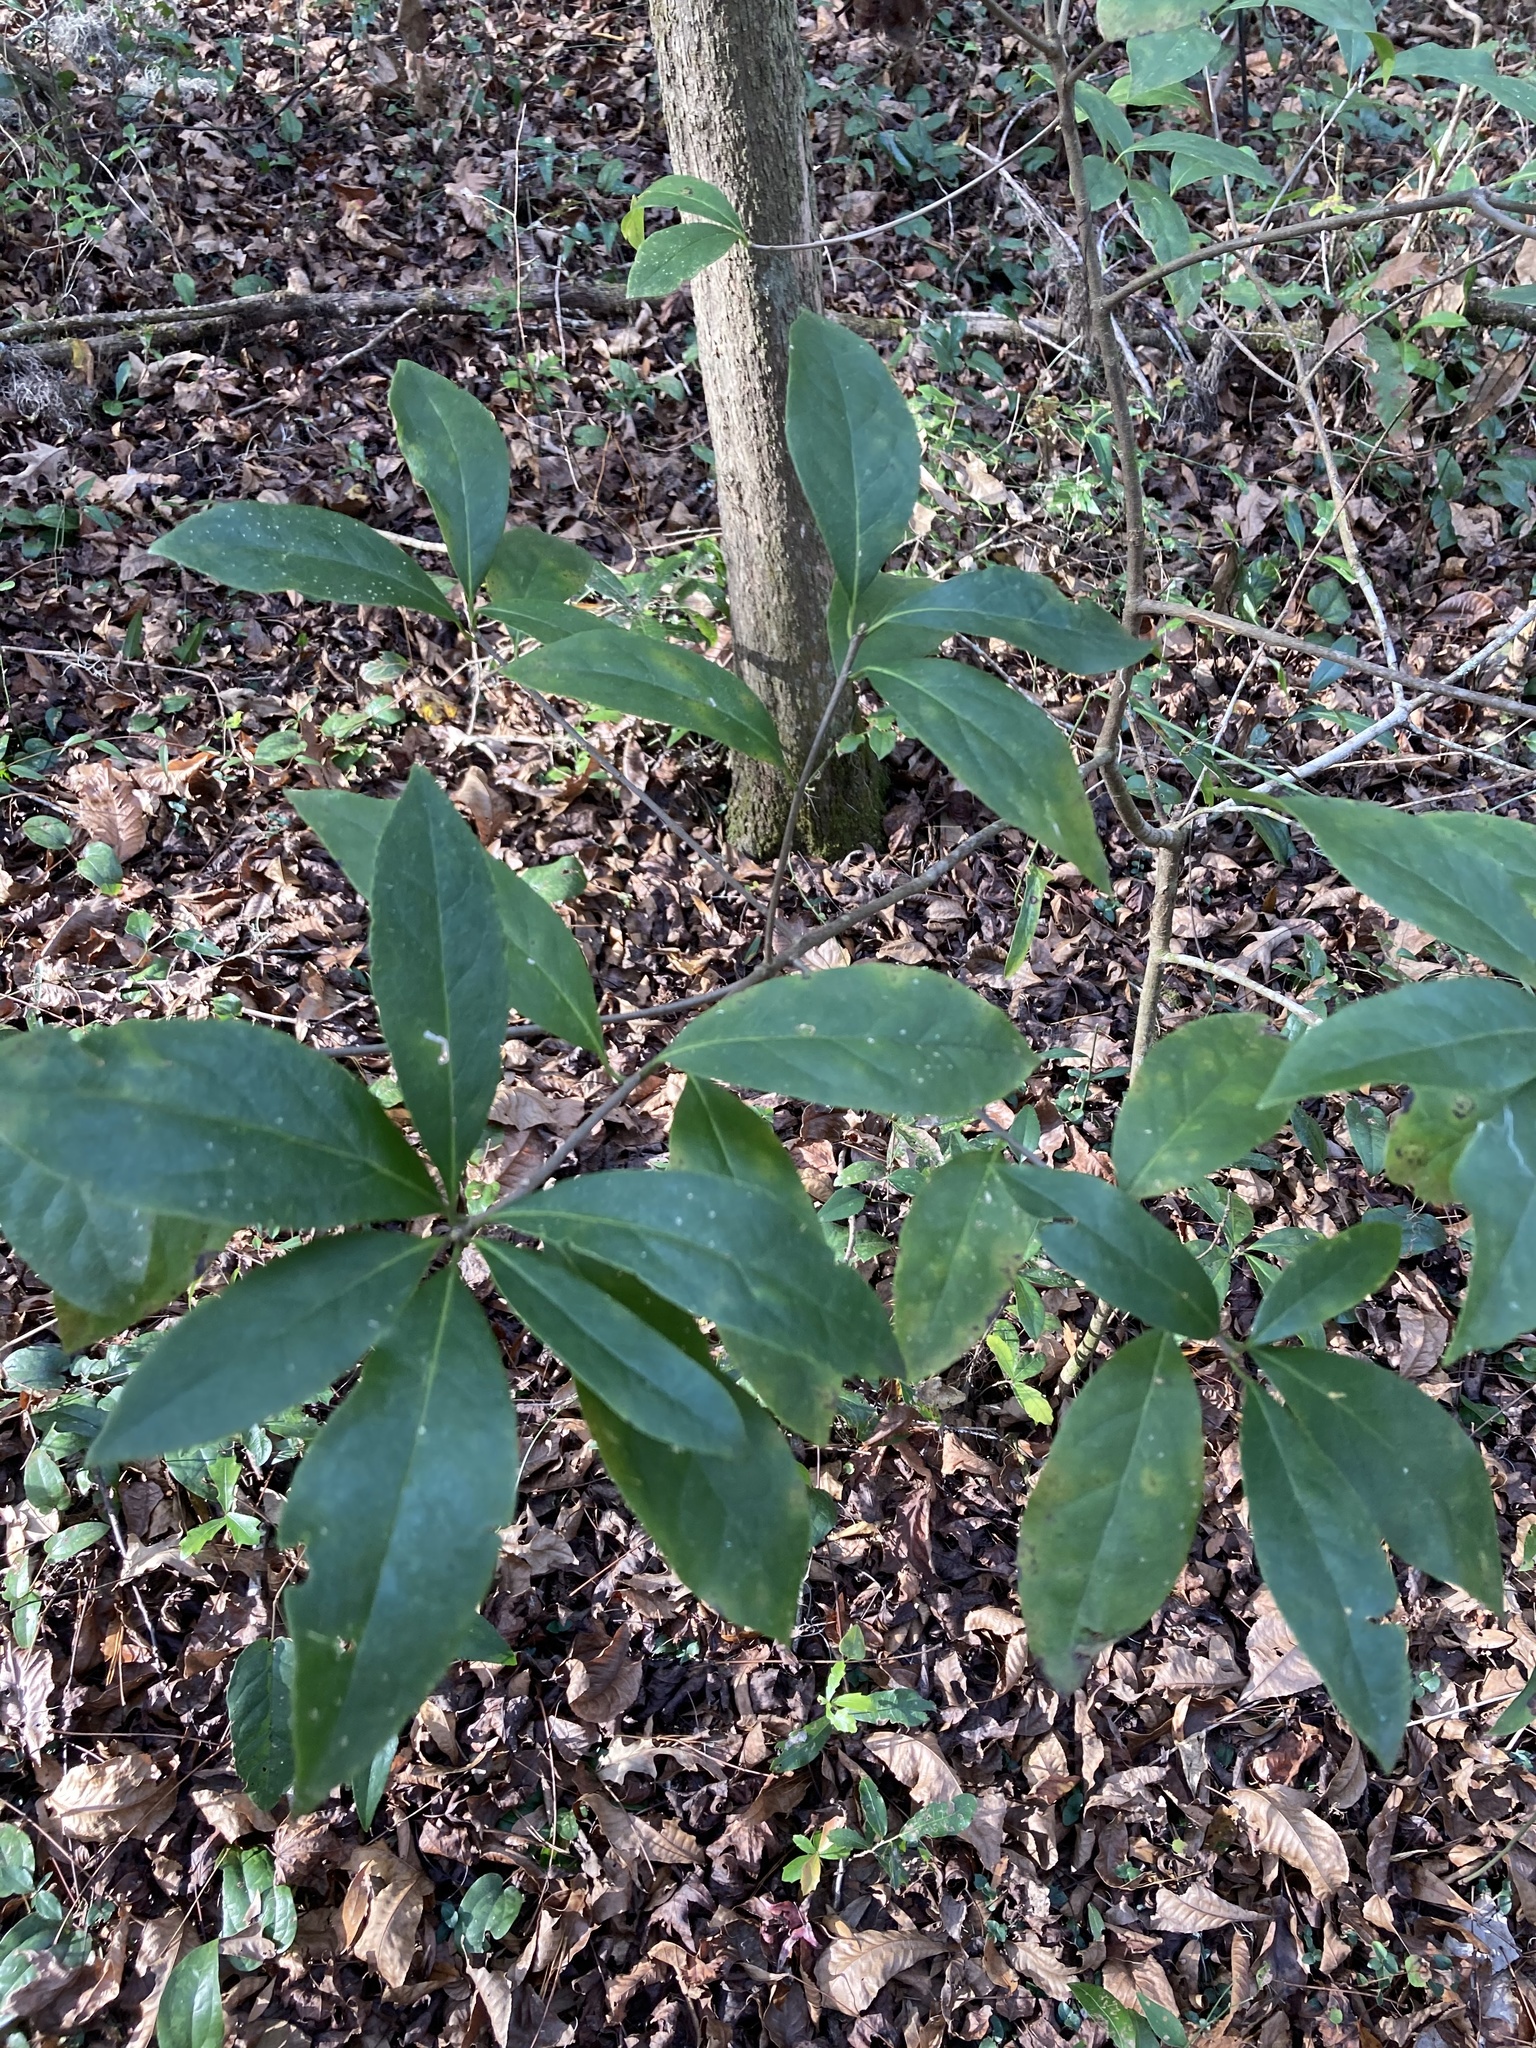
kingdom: Plantae
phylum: Tracheophyta
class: Magnoliopsida
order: Ericales
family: Symplocaceae
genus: Symplocos
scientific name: Symplocos tinctoria
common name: Horse-sugar
